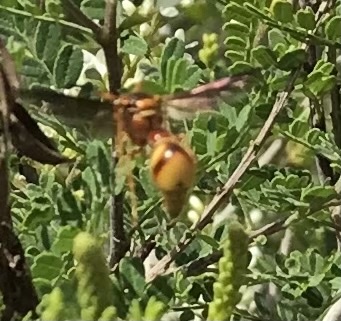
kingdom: Animalia
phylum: Arthropoda
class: Insecta
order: Hymenoptera
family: Vespidae
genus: Eumenes
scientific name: Eumenes bollii
